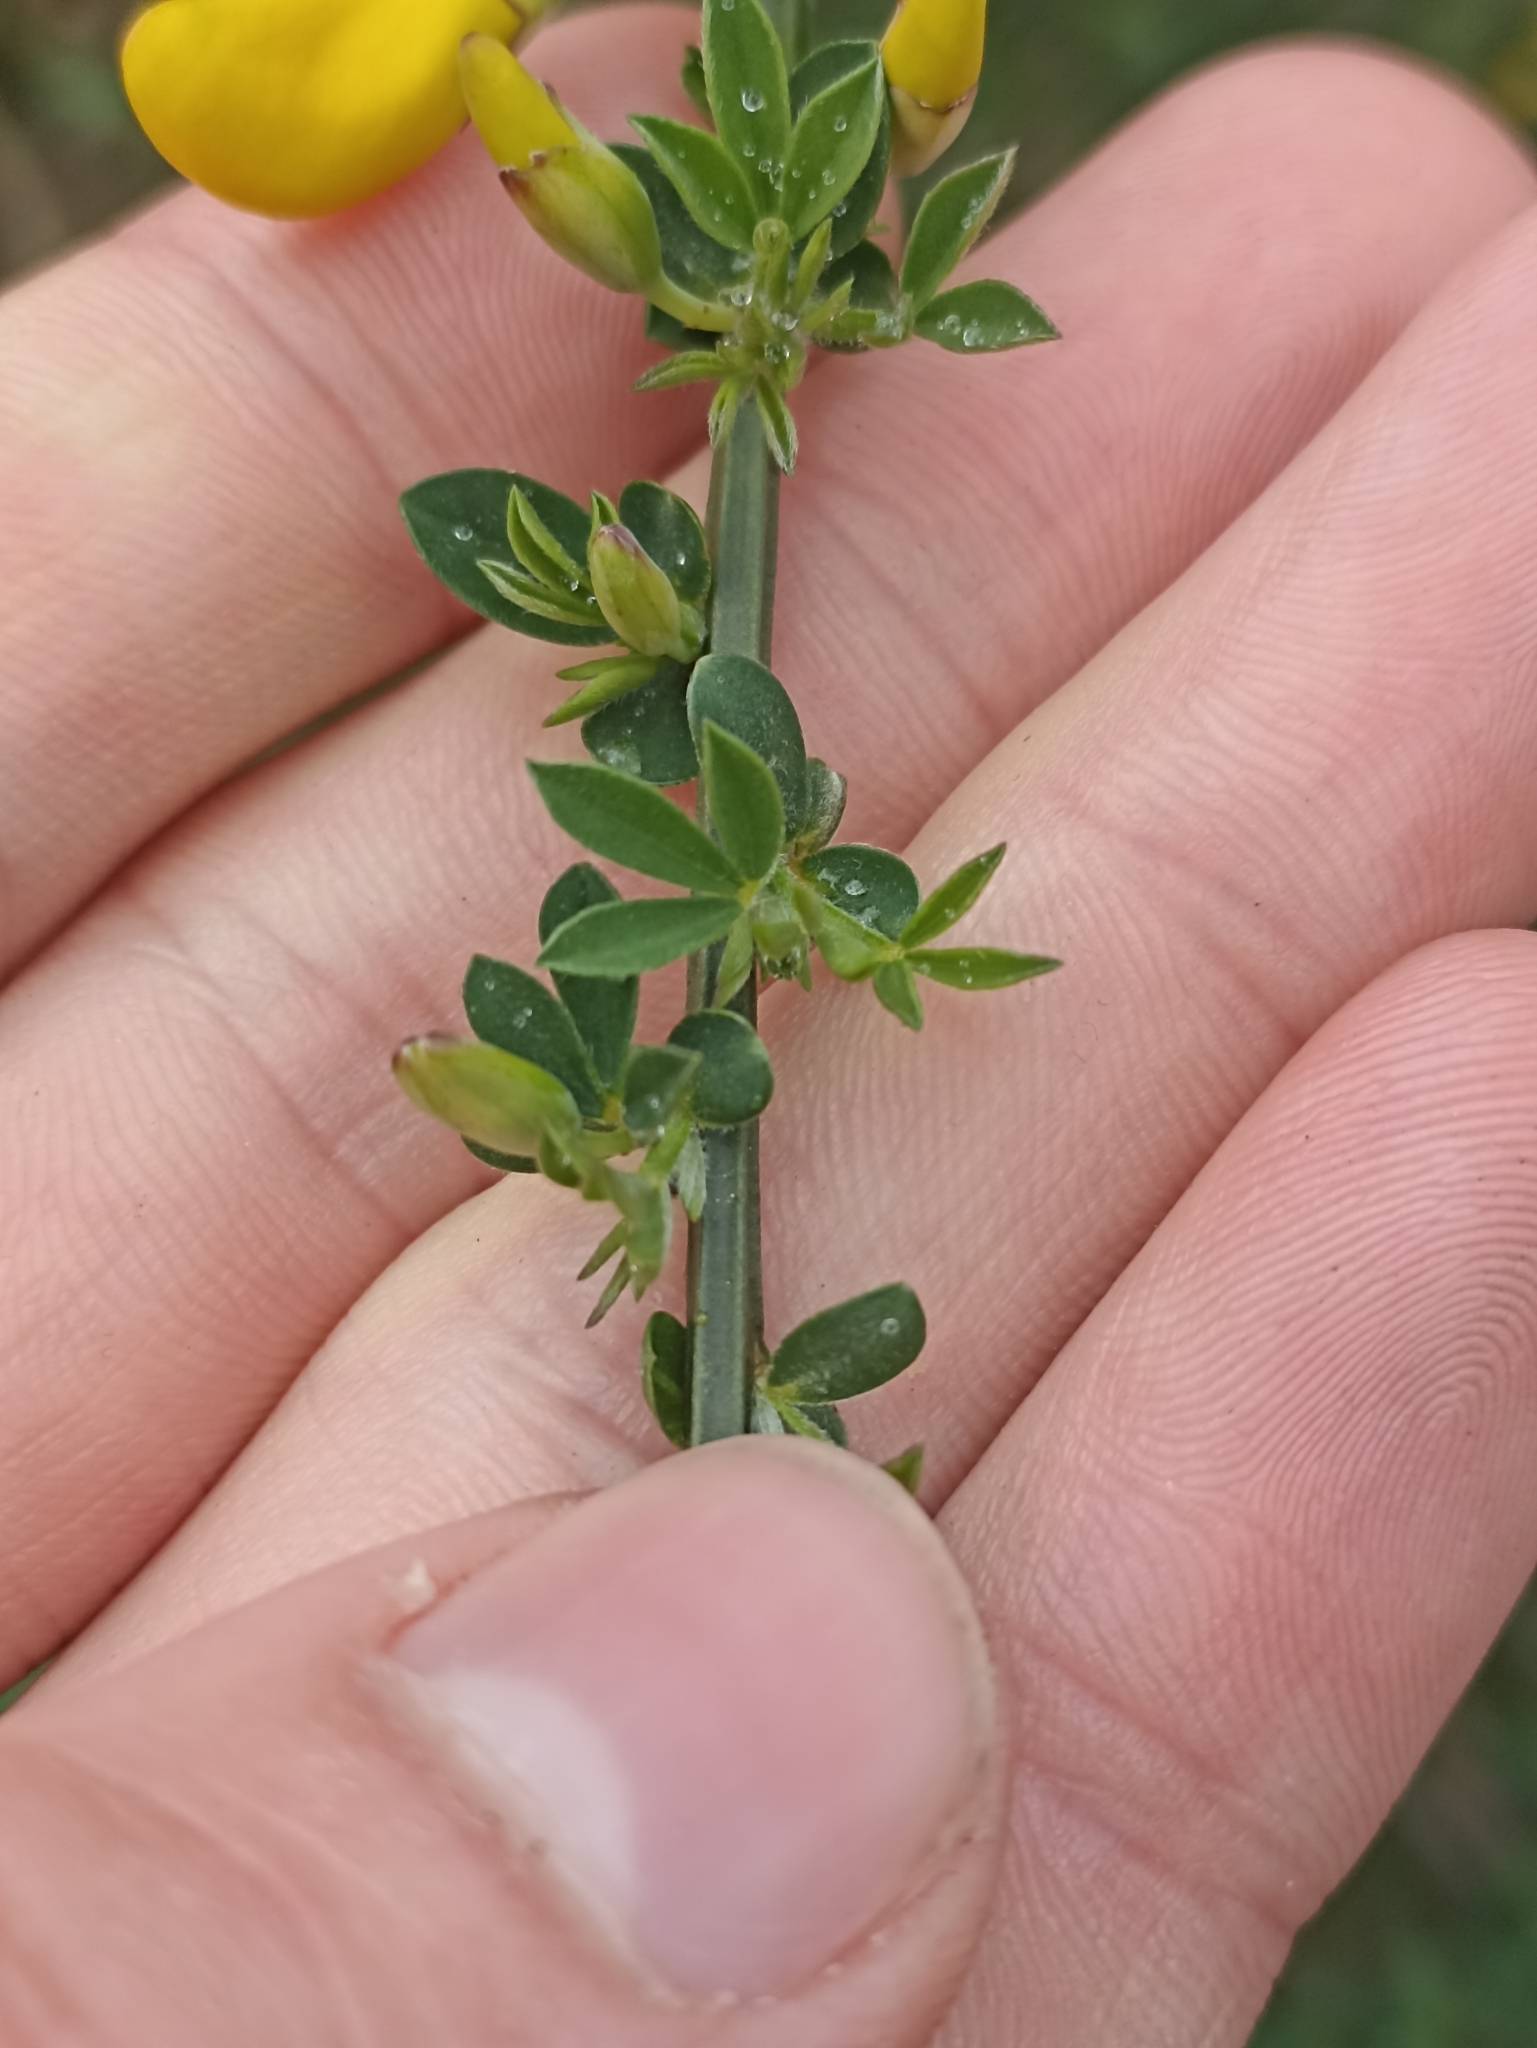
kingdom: Plantae
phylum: Tracheophyta
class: Magnoliopsida
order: Fabales
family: Fabaceae
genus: Cytisus
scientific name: Cytisus scoparius
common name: Scotch broom
